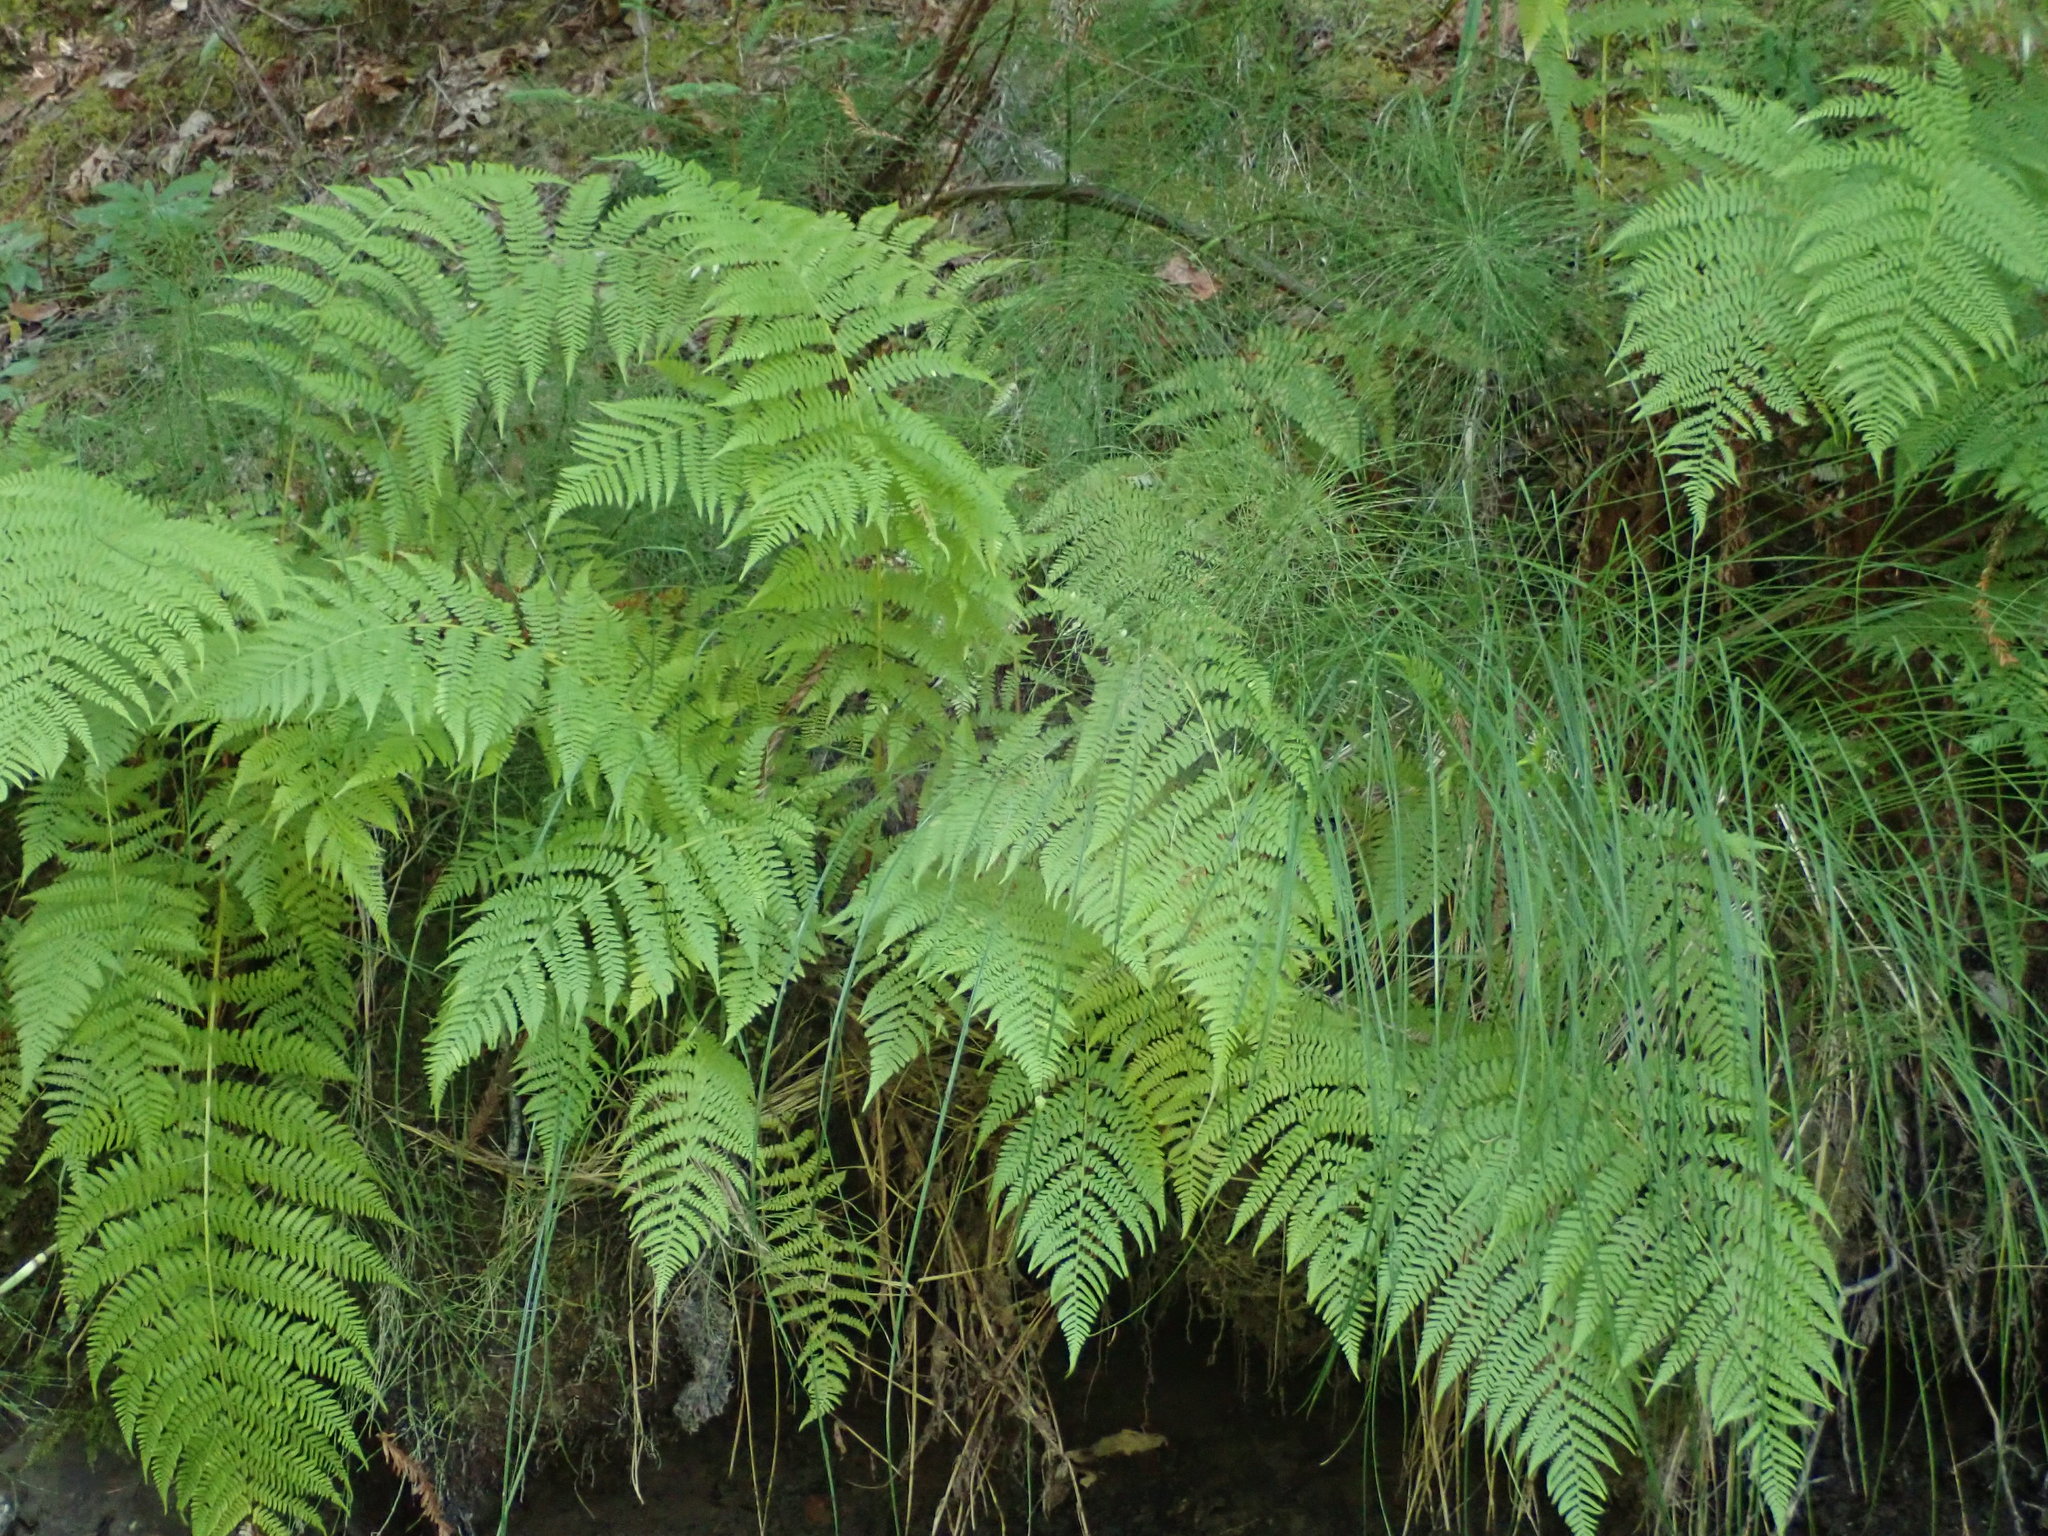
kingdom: Plantae
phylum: Tracheophyta
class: Polypodiopsida
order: Polypodiales
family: Athyriaceae
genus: Athyrium
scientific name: Athyrium filix-femina
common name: Lady fern
